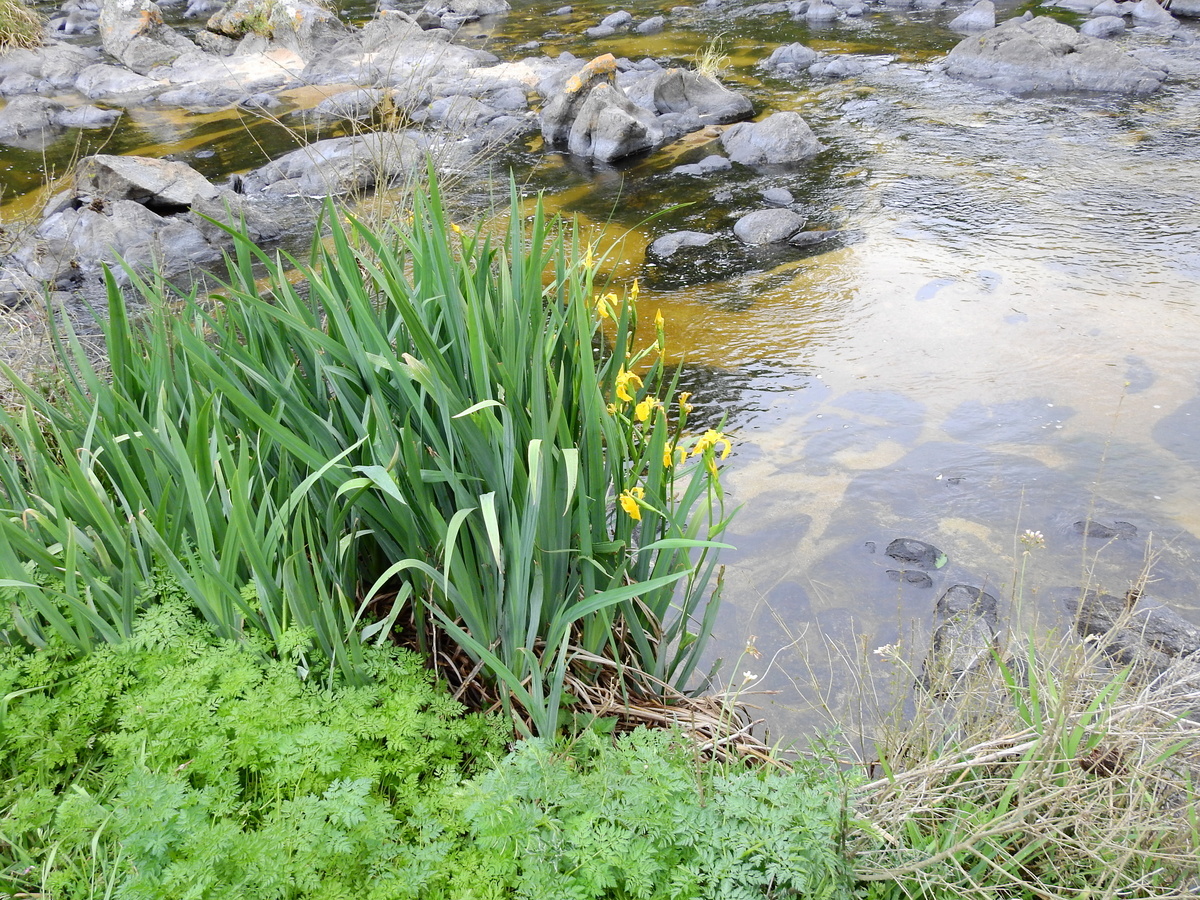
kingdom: Plantae
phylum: Tracheophyta
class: Liliopsida
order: Asparagales
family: Iridaceae
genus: Iris
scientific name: Iris pseudacorus
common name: Yellow flag
